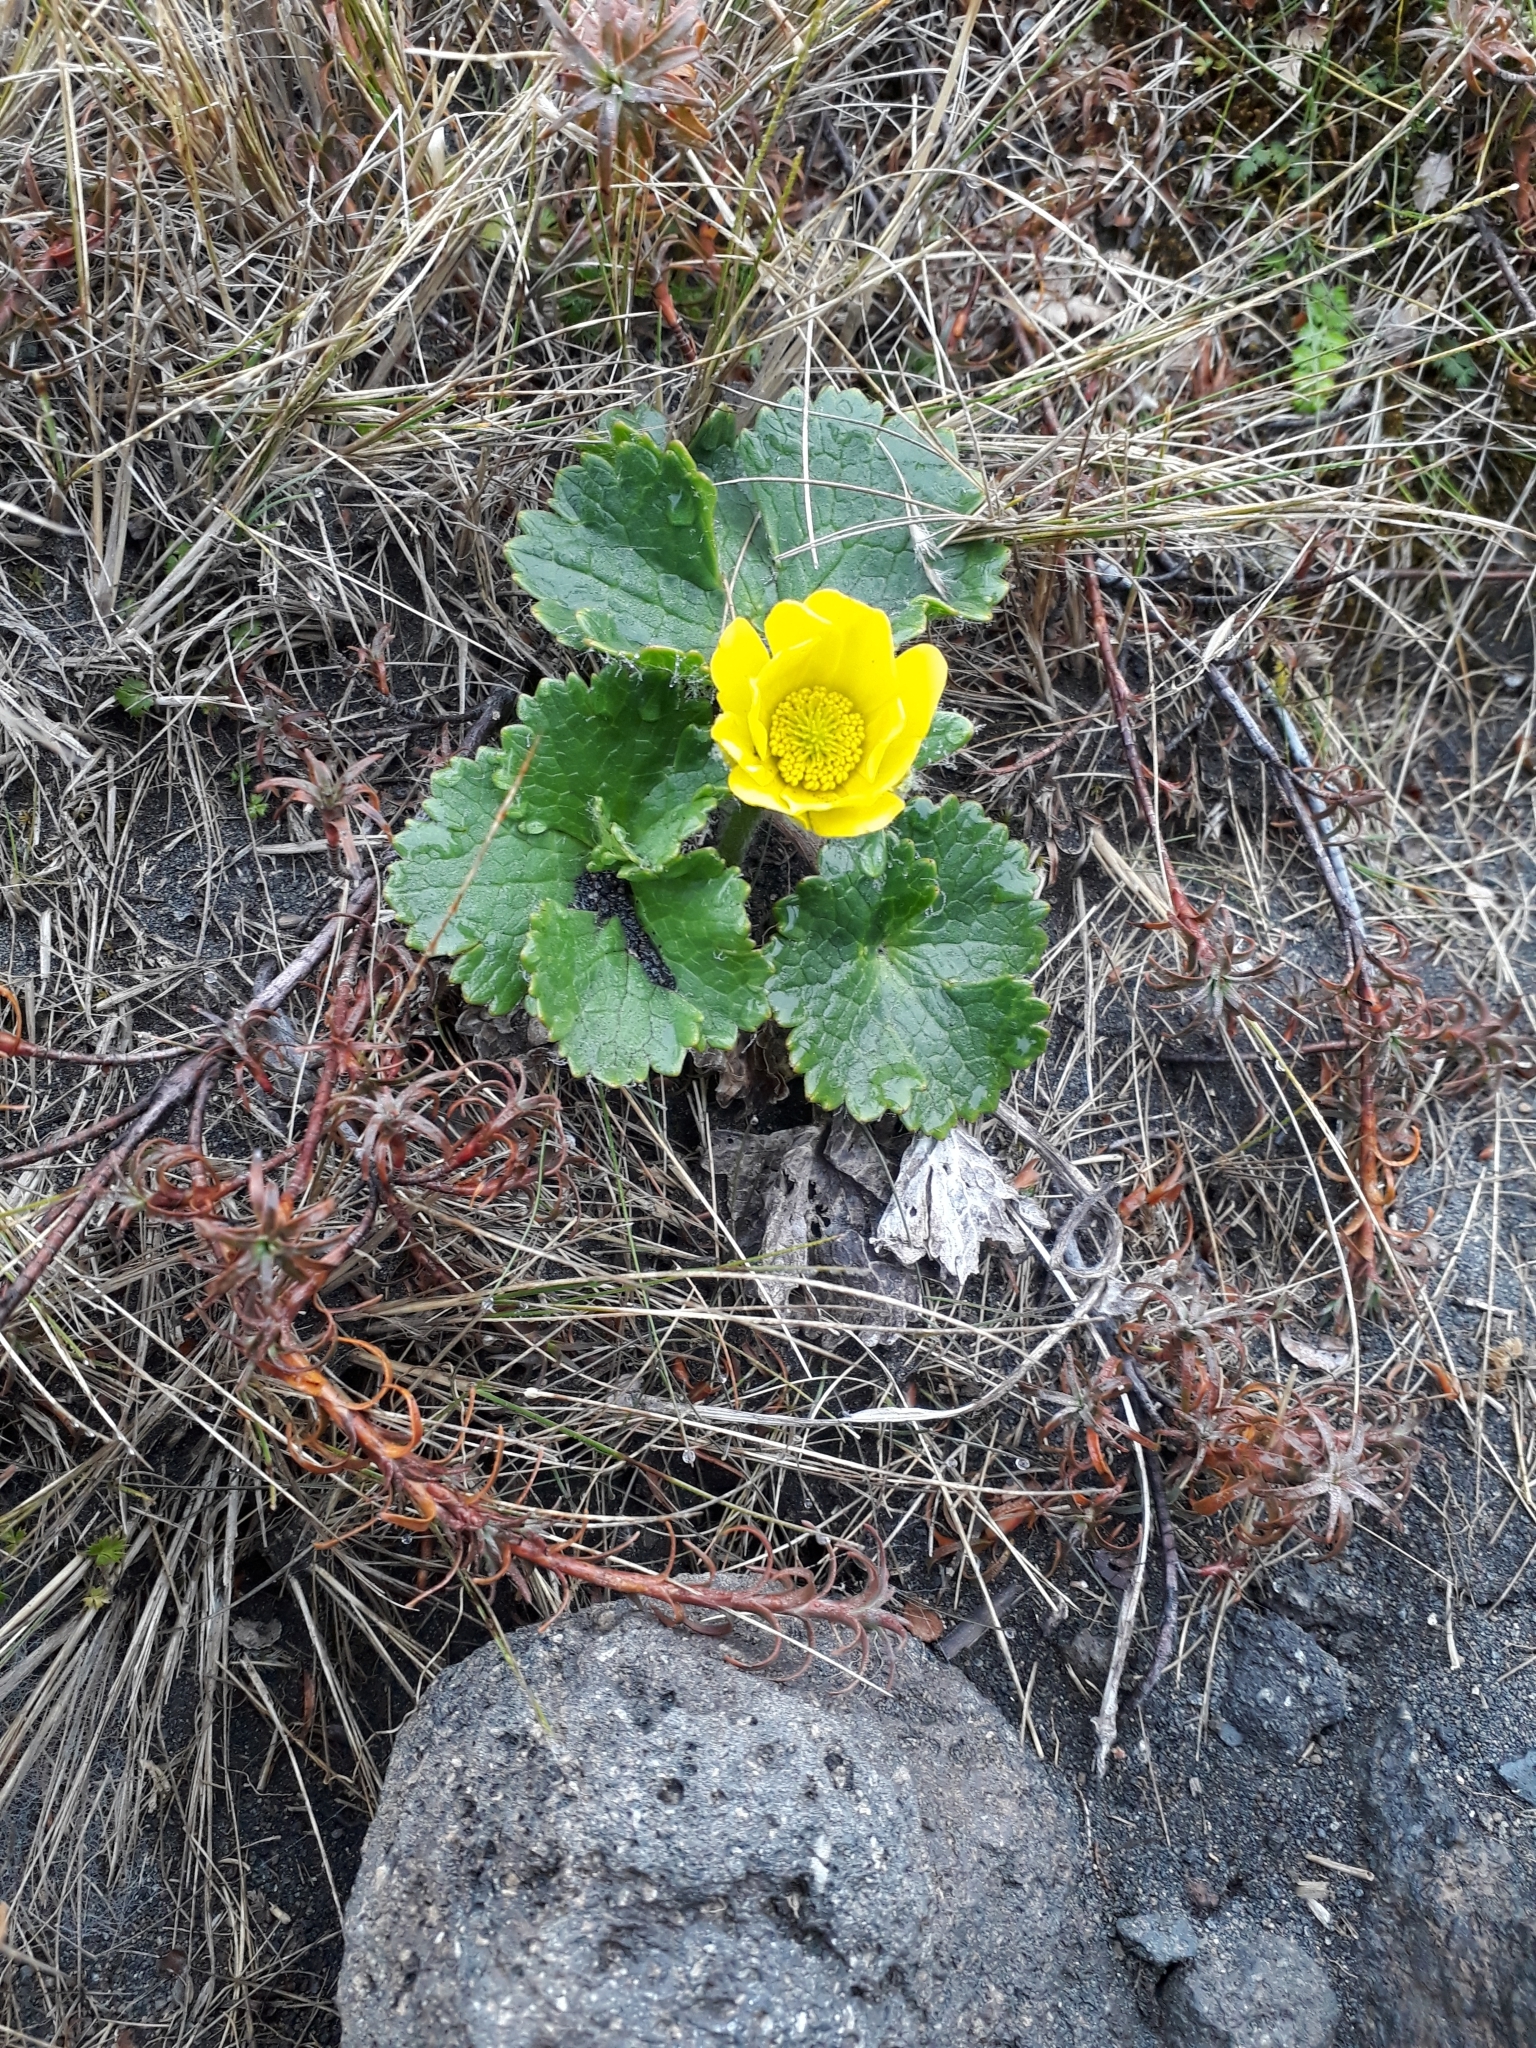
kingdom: Plantae
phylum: Tracheophyta
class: Magnoliopsida
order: Ranunculales
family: Ranunculaceae
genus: Ranunculus
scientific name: Ranunculus nivicola
